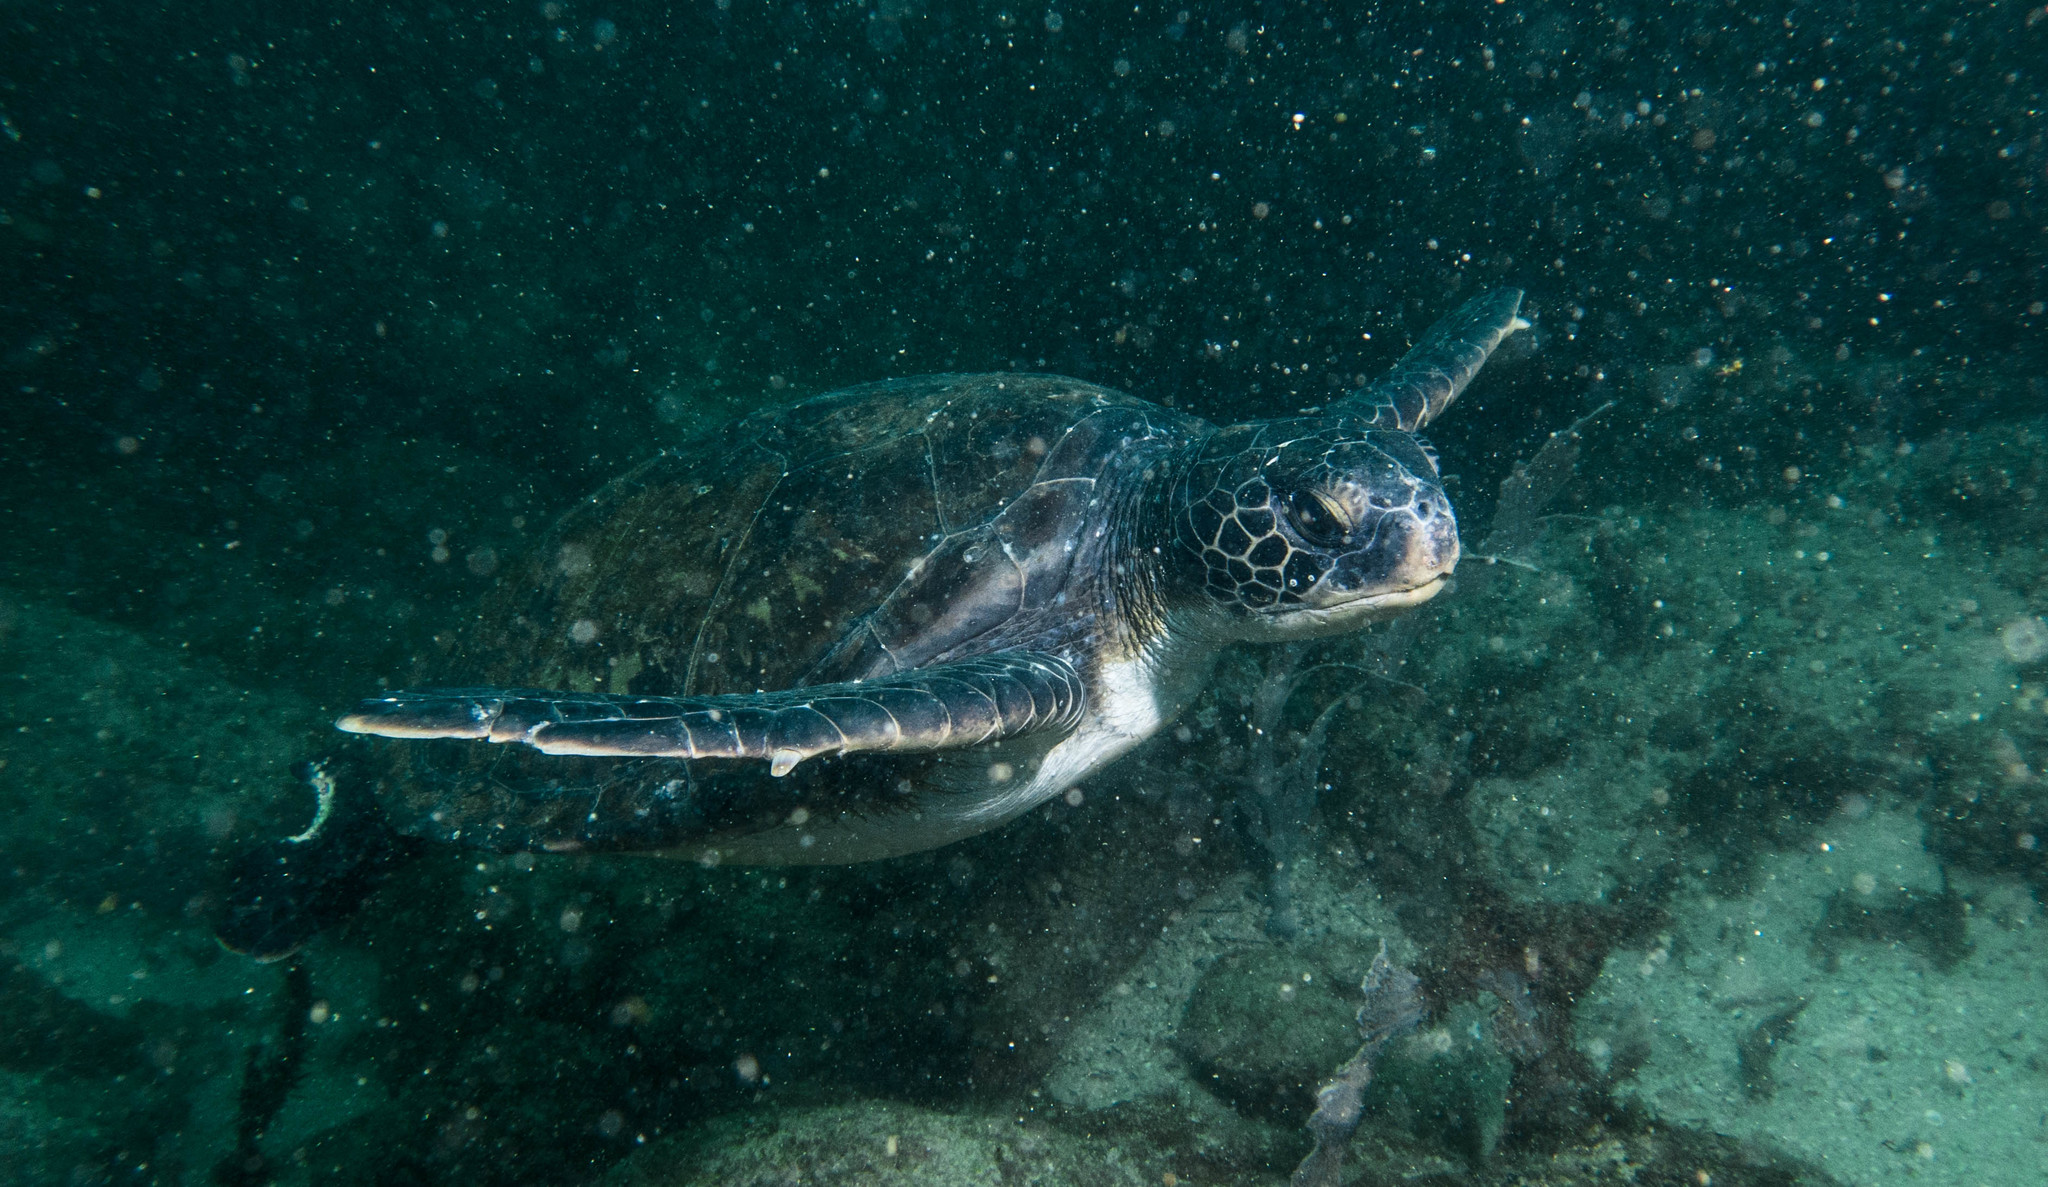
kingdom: Animalia
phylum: Chordata
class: Testudines
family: Cheloniidae
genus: Chelonia
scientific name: Chelonia mydas
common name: Green turtle
